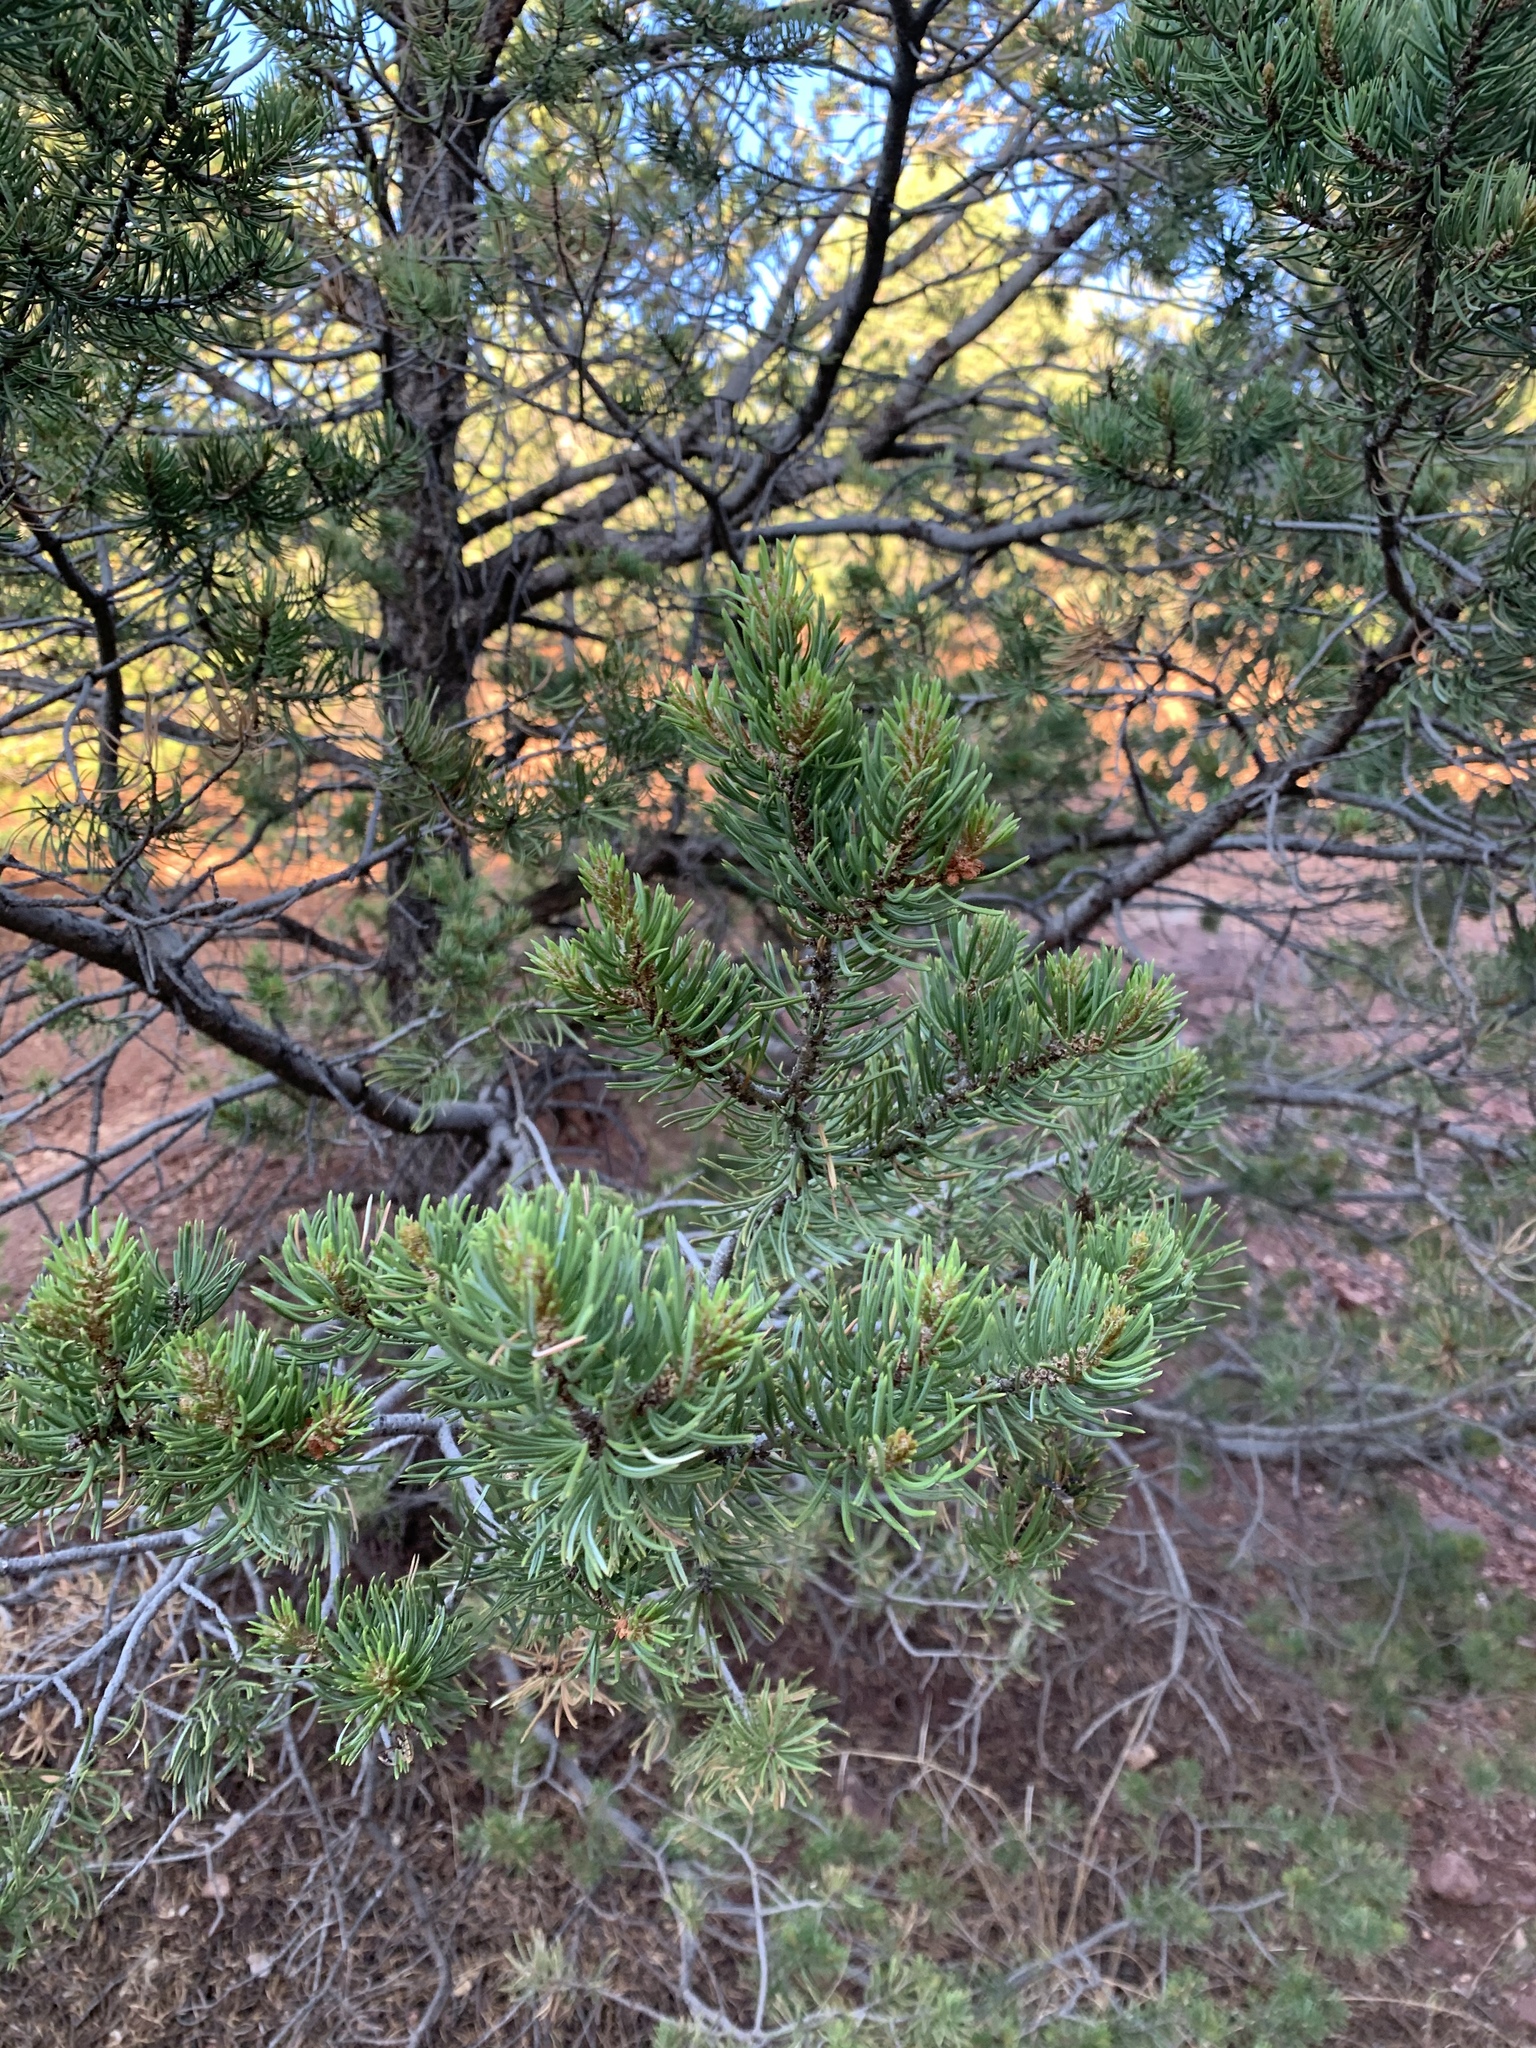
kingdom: Plantae
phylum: Tracheophyta
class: Pinopsida
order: Pinales
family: Pinaceae
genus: Pinus
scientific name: Pinus edulis
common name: Colorado pinyon
